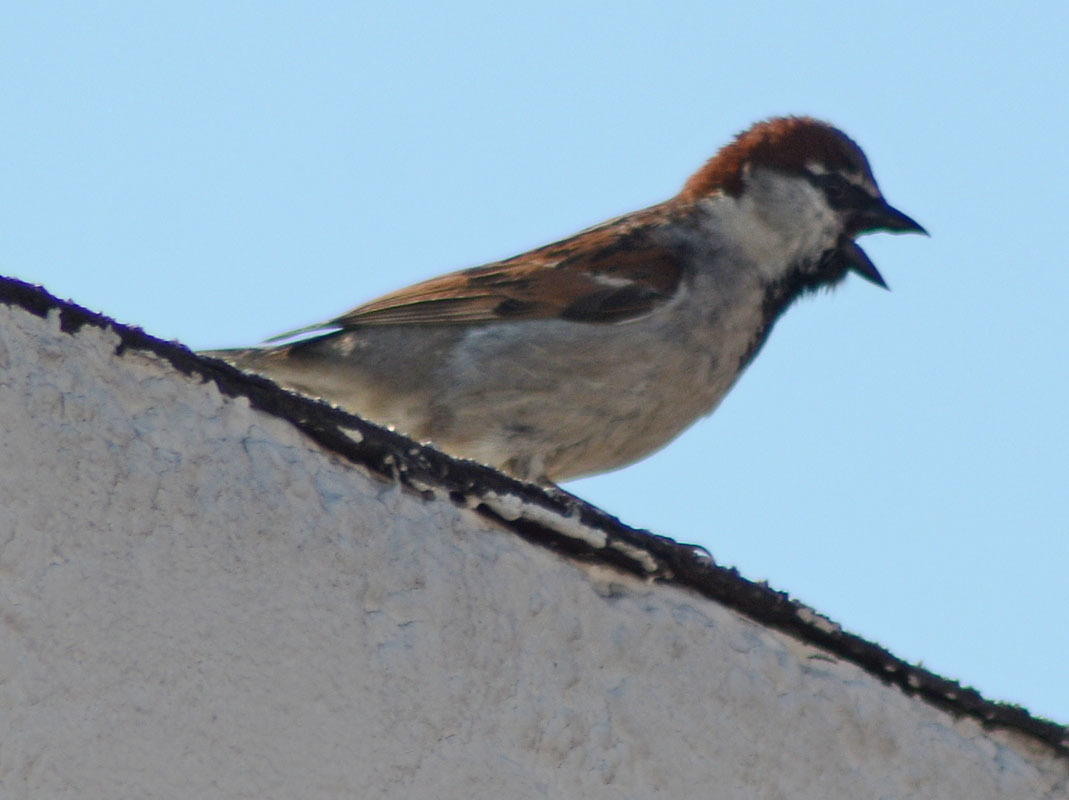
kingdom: Animalia
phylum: Chordata
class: Aves
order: Passeriformes
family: Passeridae
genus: Passer
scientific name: Passer domesticus
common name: House sparrow
